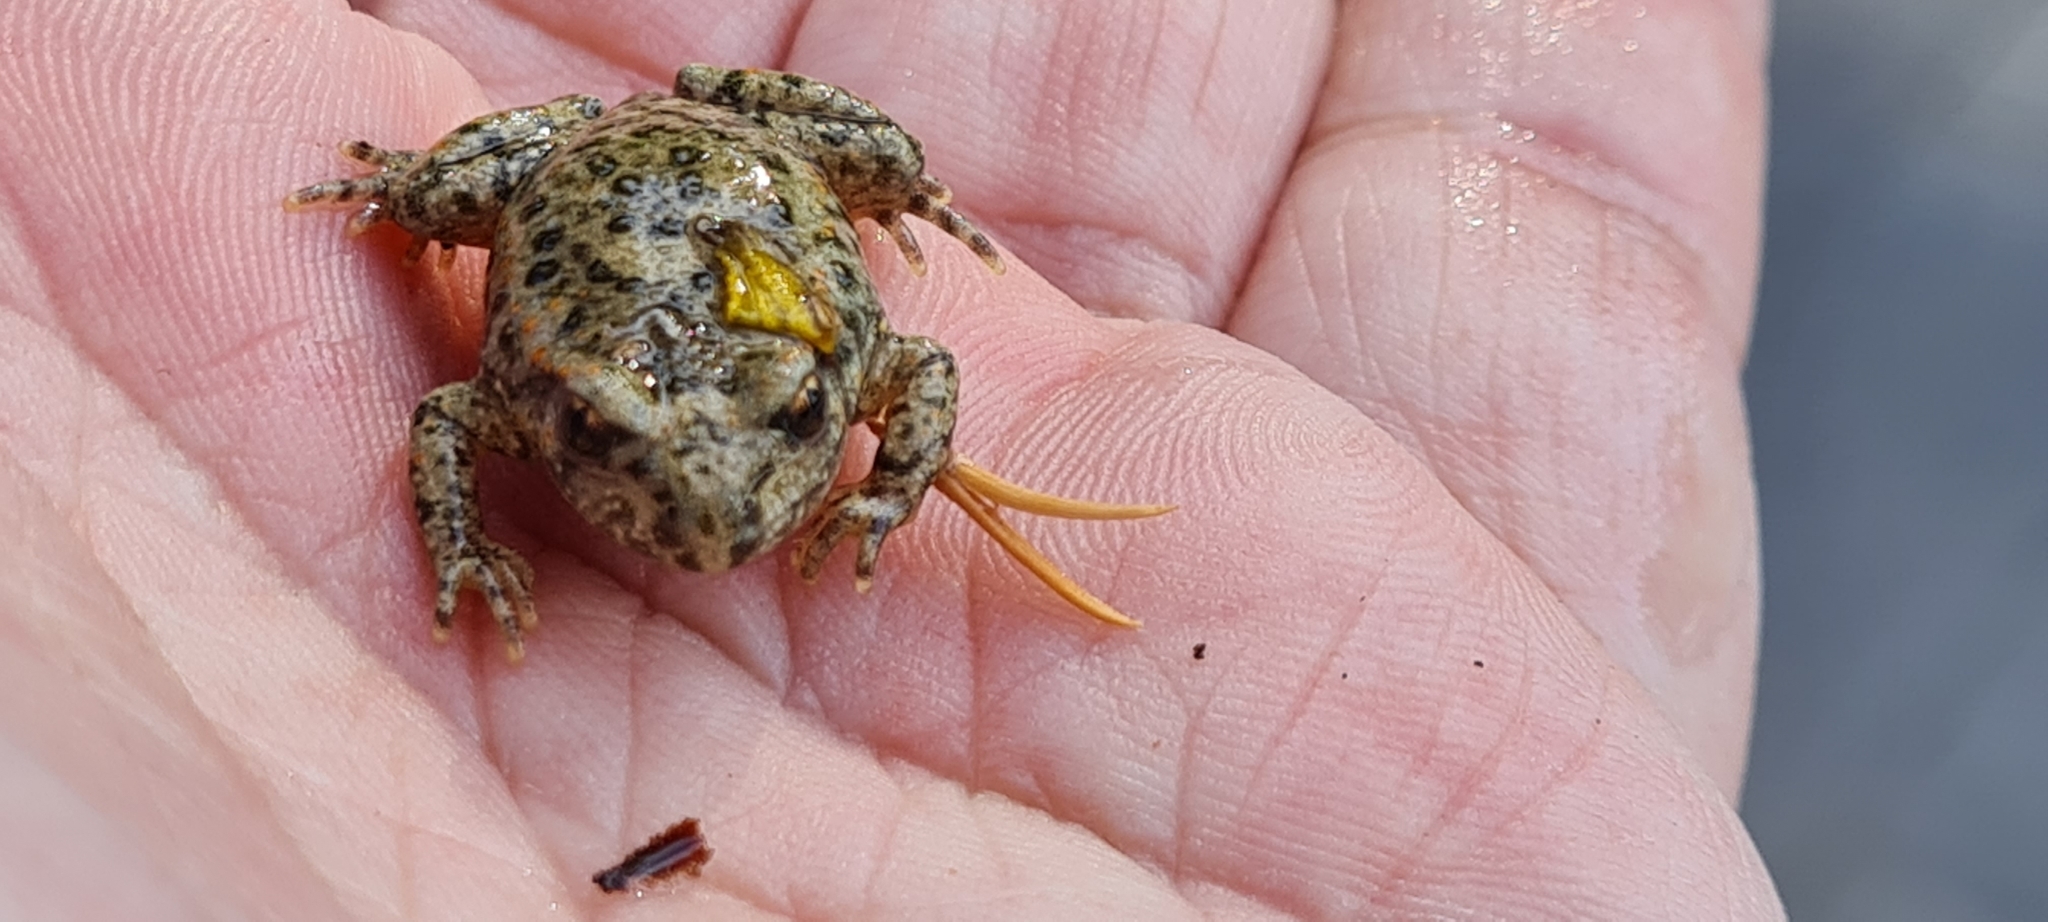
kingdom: Animalia
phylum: Chordata
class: Amphibia
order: Anura
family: Alytidae
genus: Alytes
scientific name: Alytes obstetricans
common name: Midwife toad
